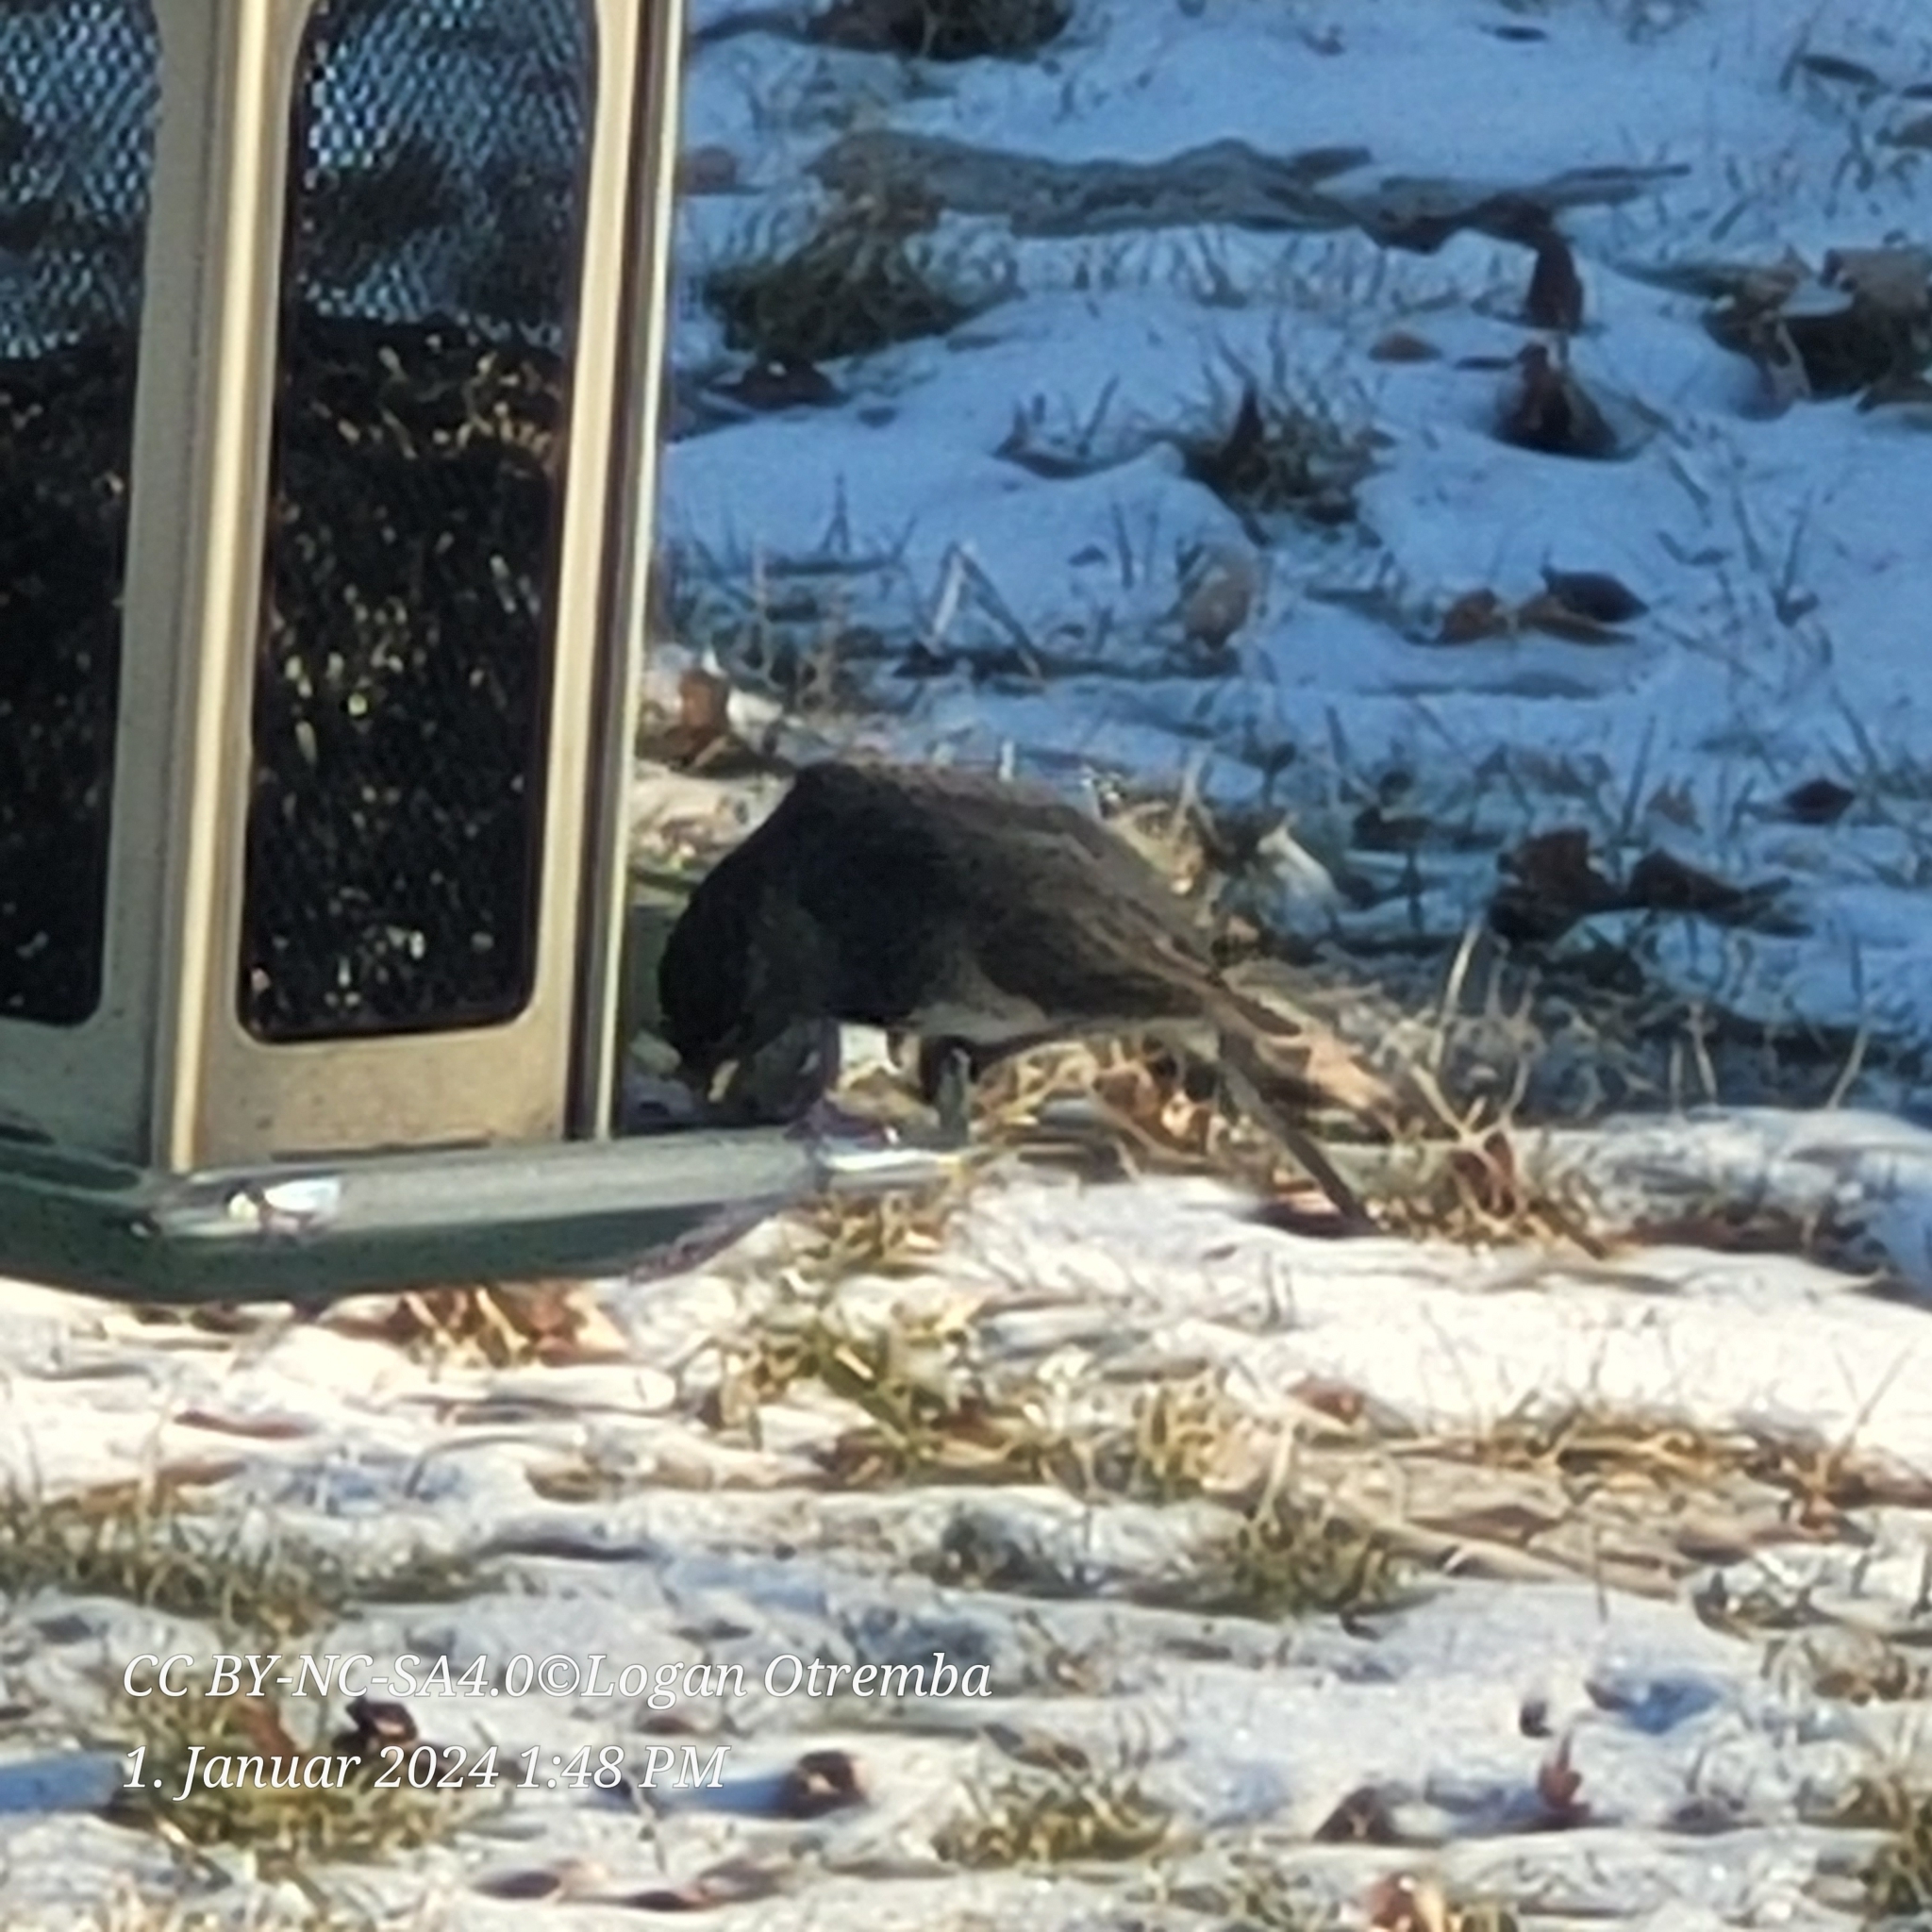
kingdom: Animalia
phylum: Chordata
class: Aves
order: Passeriformes
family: Passerellidae
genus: Junco
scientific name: Junco hyemalis
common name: Dark-eyed junco
